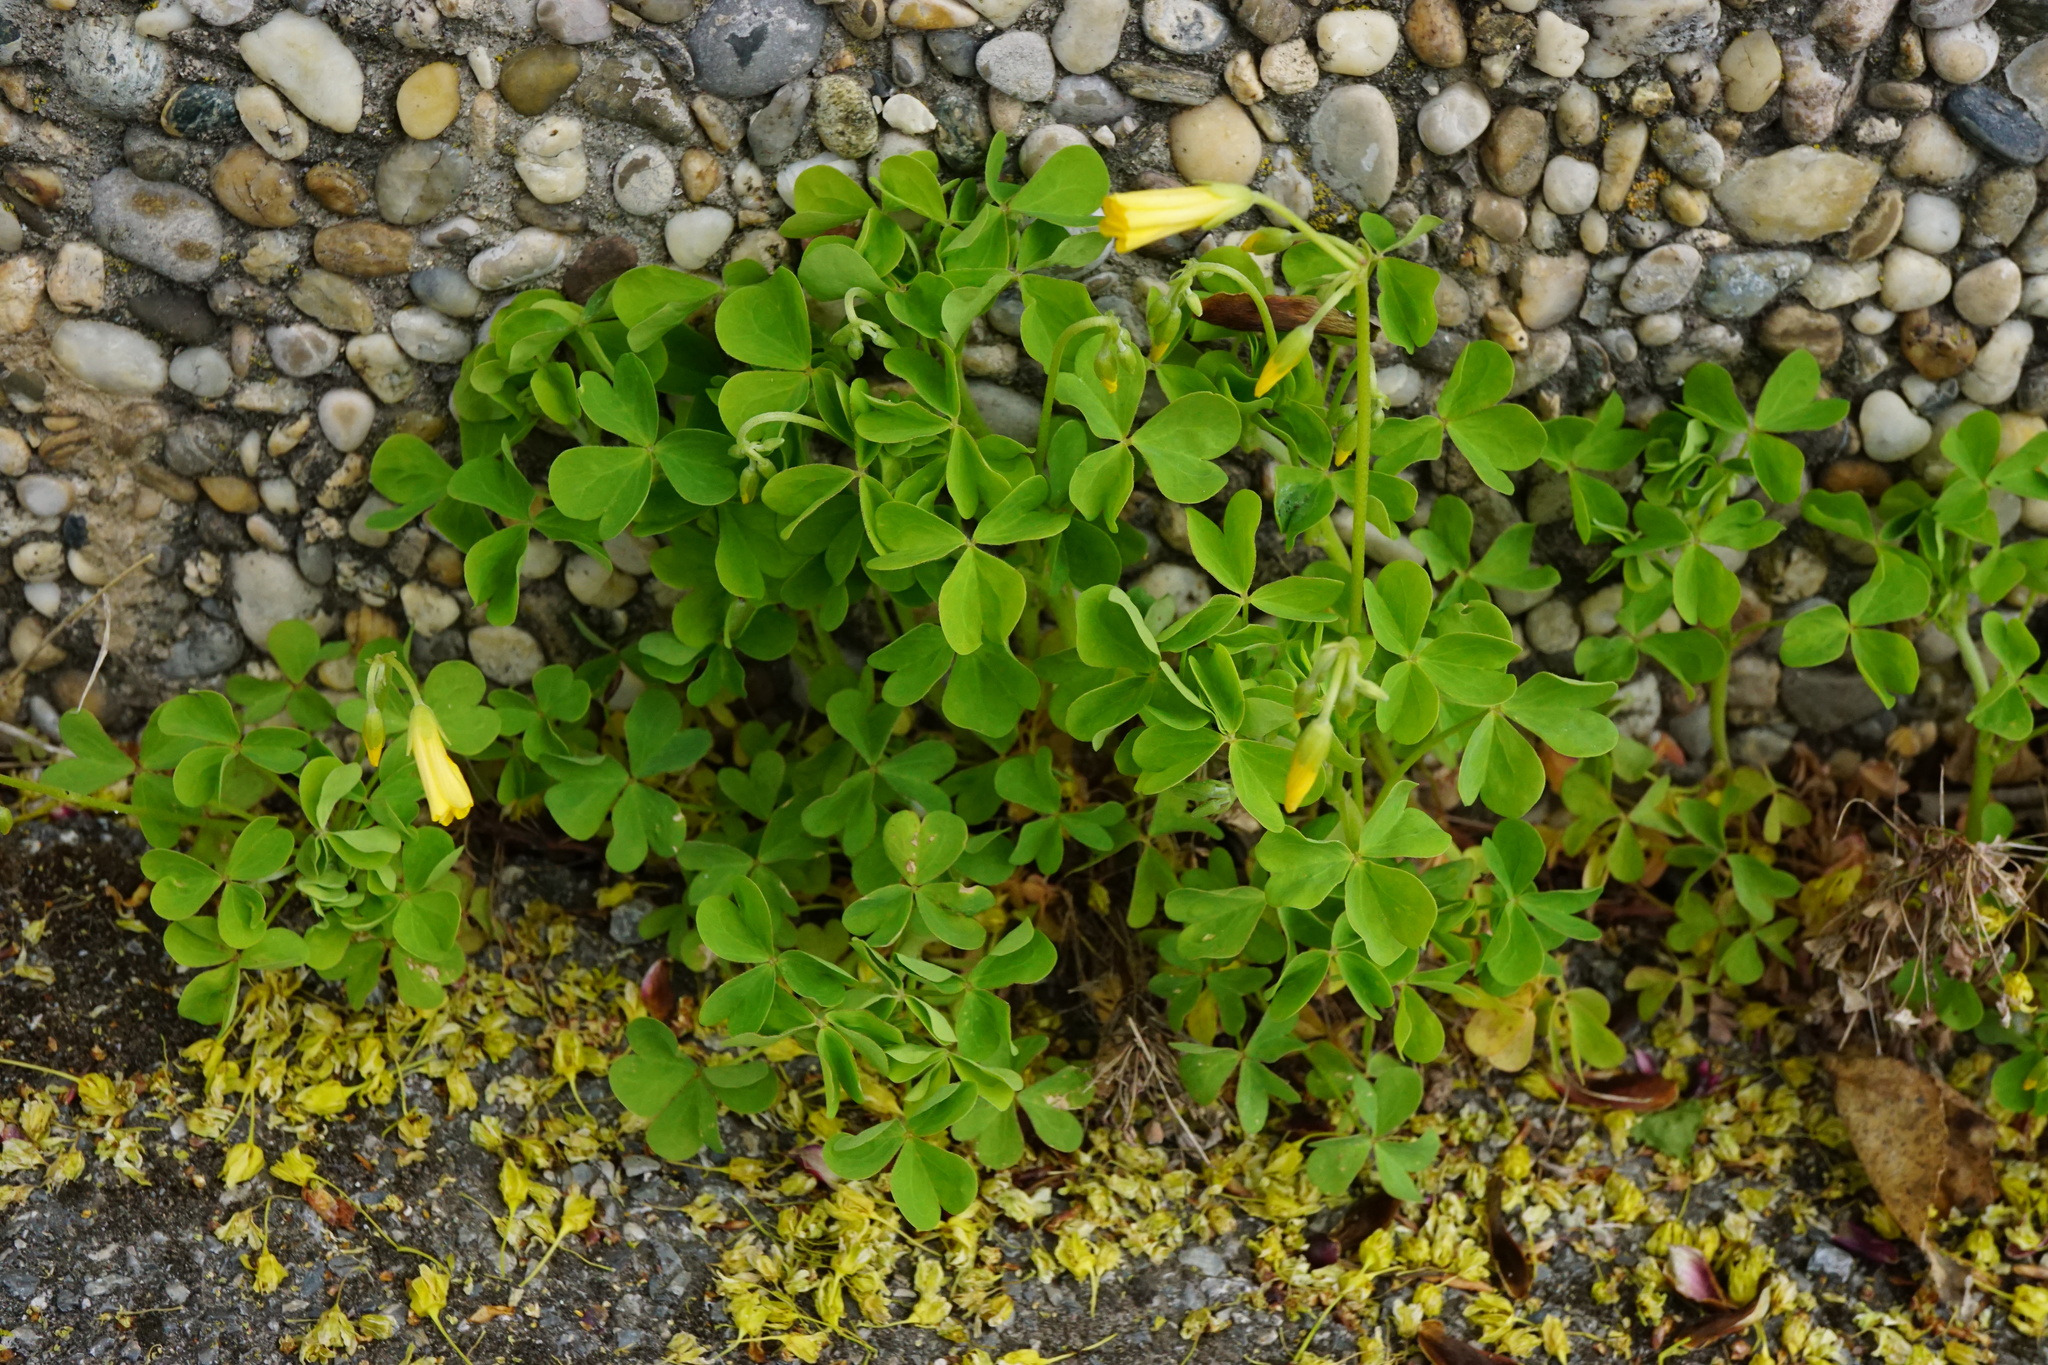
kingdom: Plantae
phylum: Tracheophyta
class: Magnoliopsida
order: Oxalidales
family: Oxalidaceae
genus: Oxalis
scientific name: Oxalis dillenii
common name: Sussex yellow-sorrel
